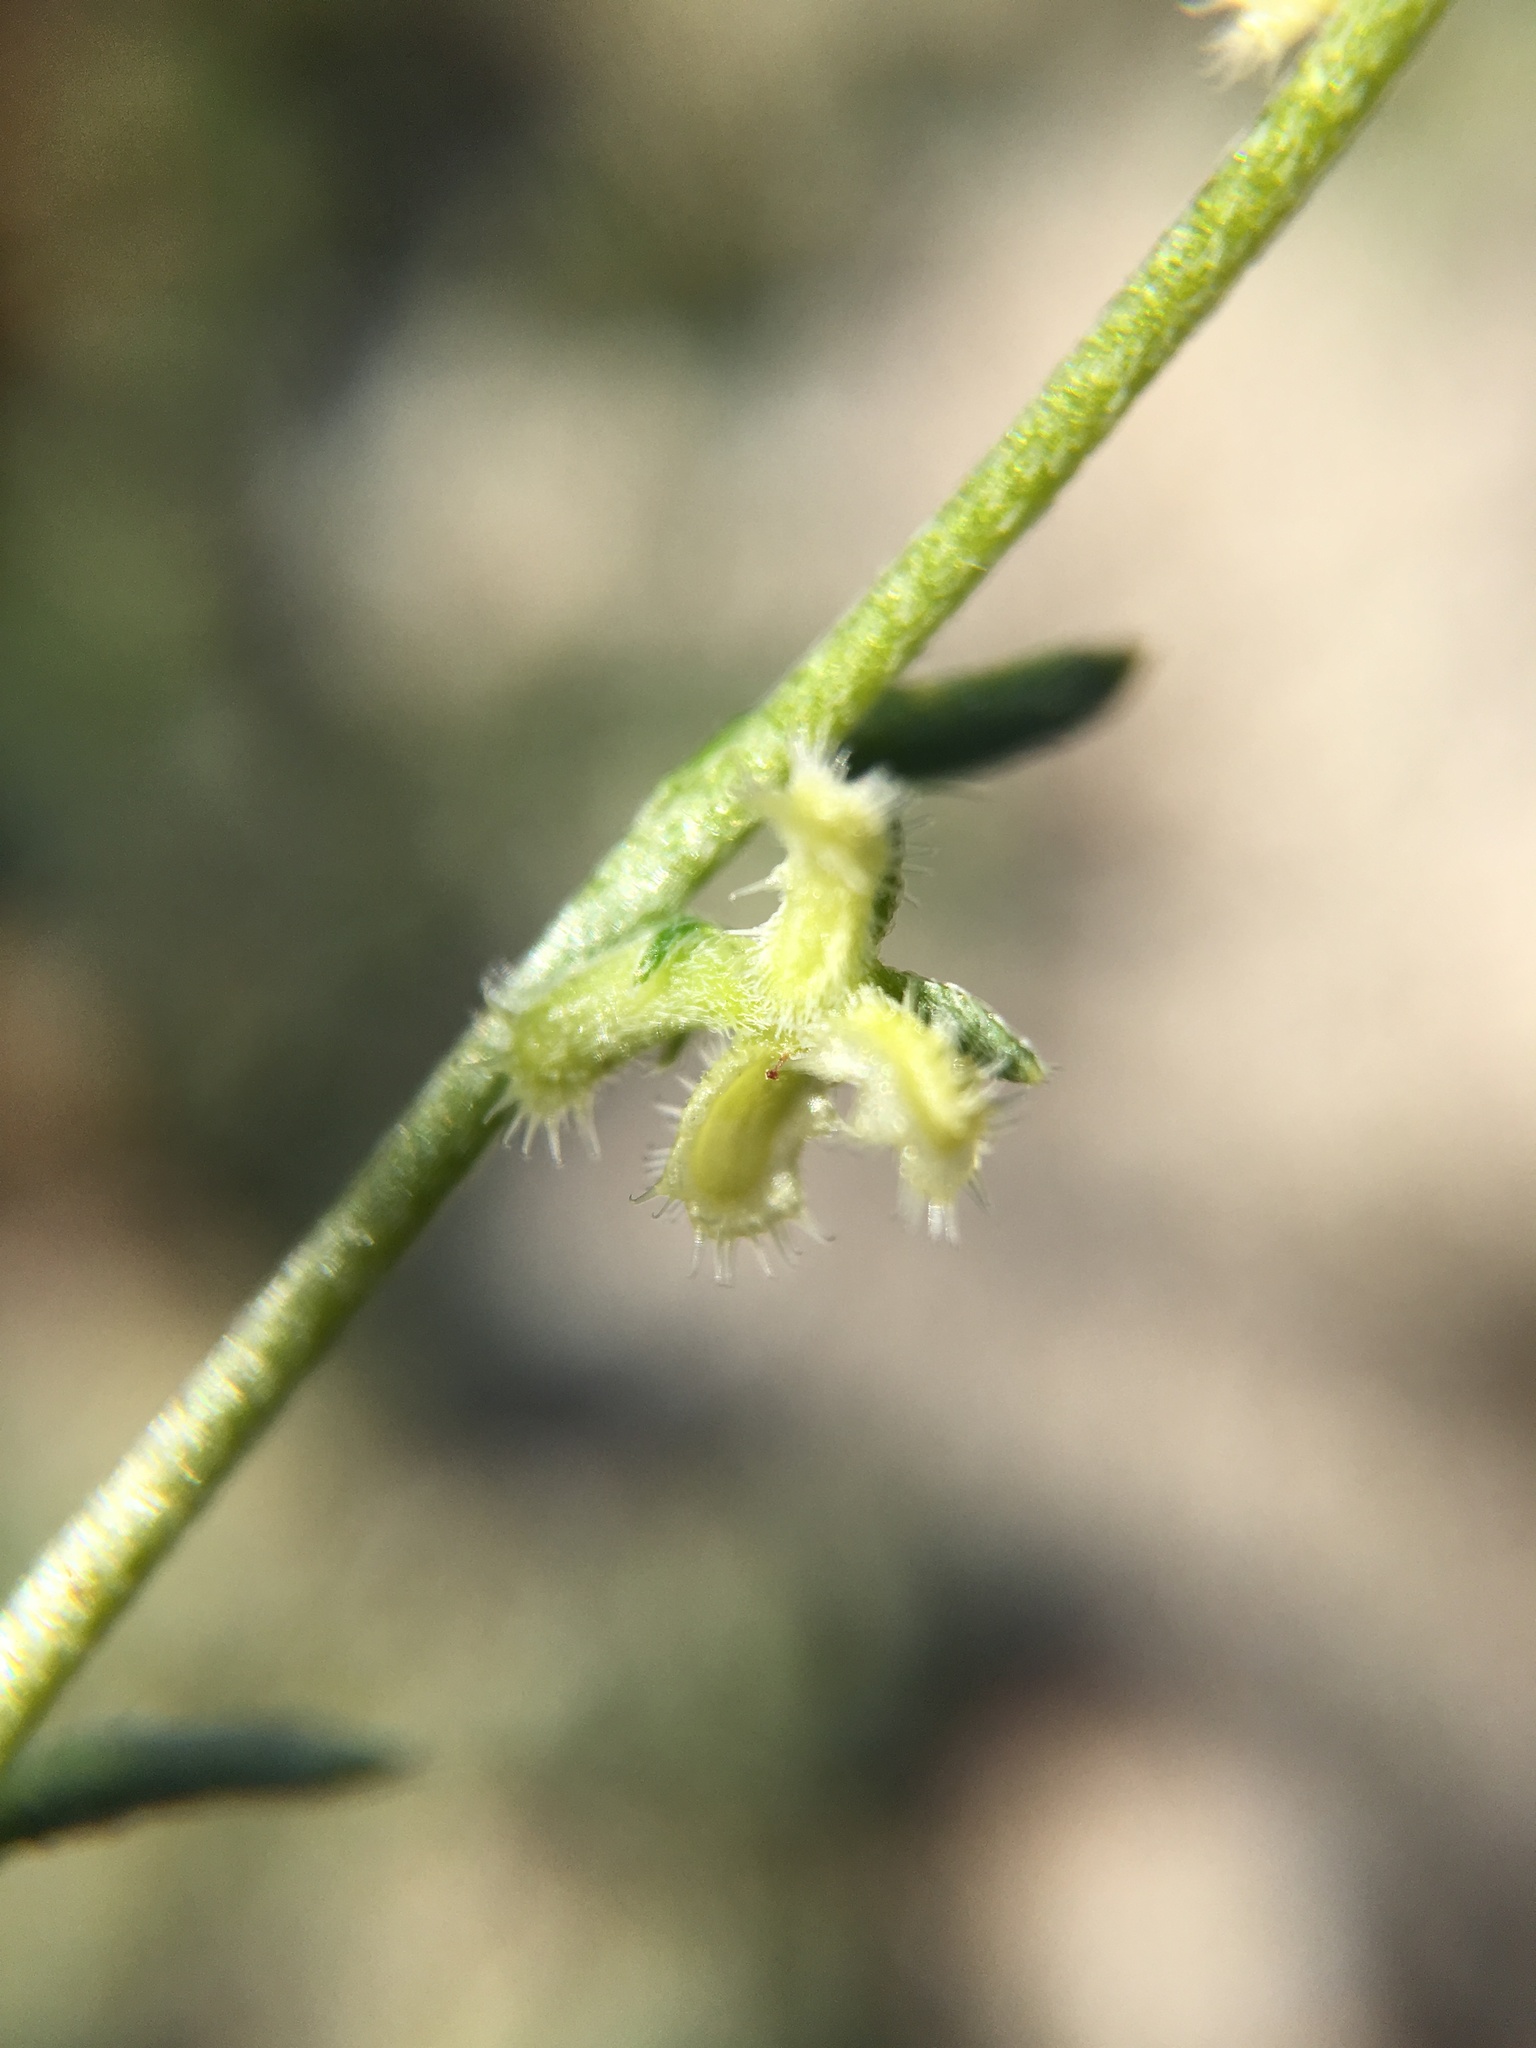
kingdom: Plantae
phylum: Tracheophyta
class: Magnoliopsida
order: Boraginales
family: Boraginaceae
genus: Pectocarya
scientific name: Pectocarya heterocarpa
